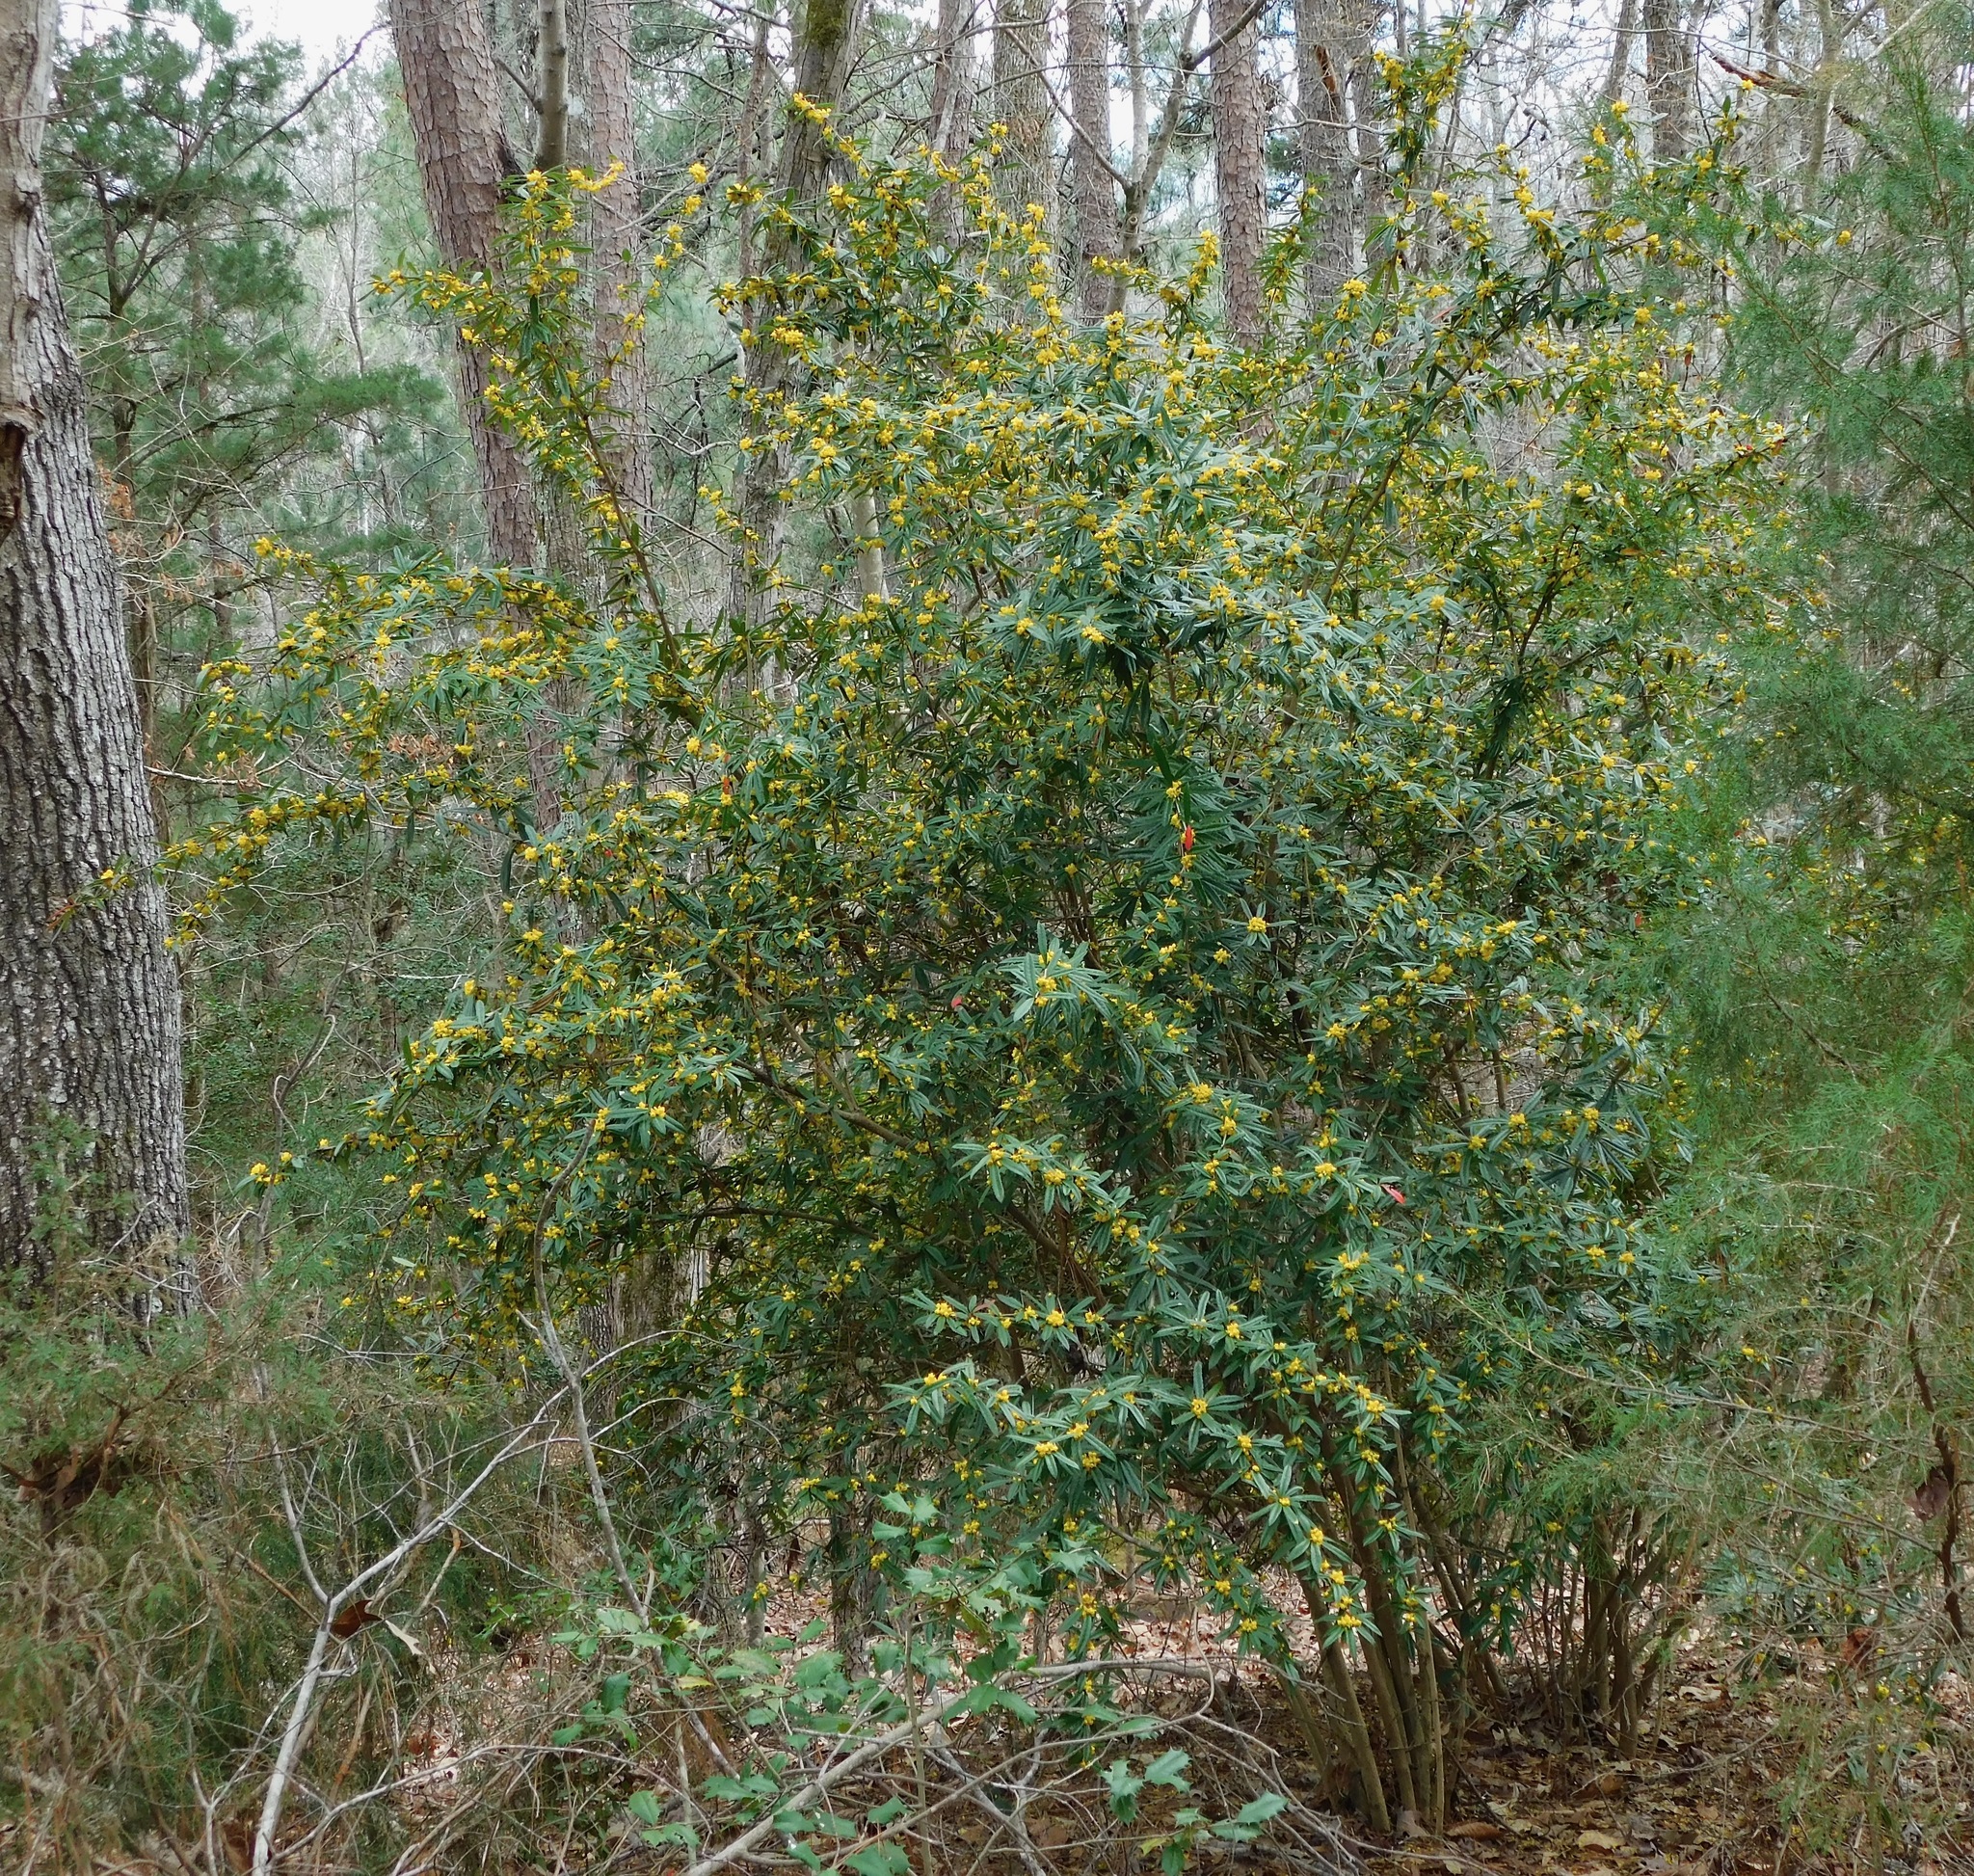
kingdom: Plantae
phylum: Tracheophyta
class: Magnoliopsida
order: Ranunculales
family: Berberidaceae
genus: Berberis
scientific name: Berberis julianae
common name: Wintergreen barberry
